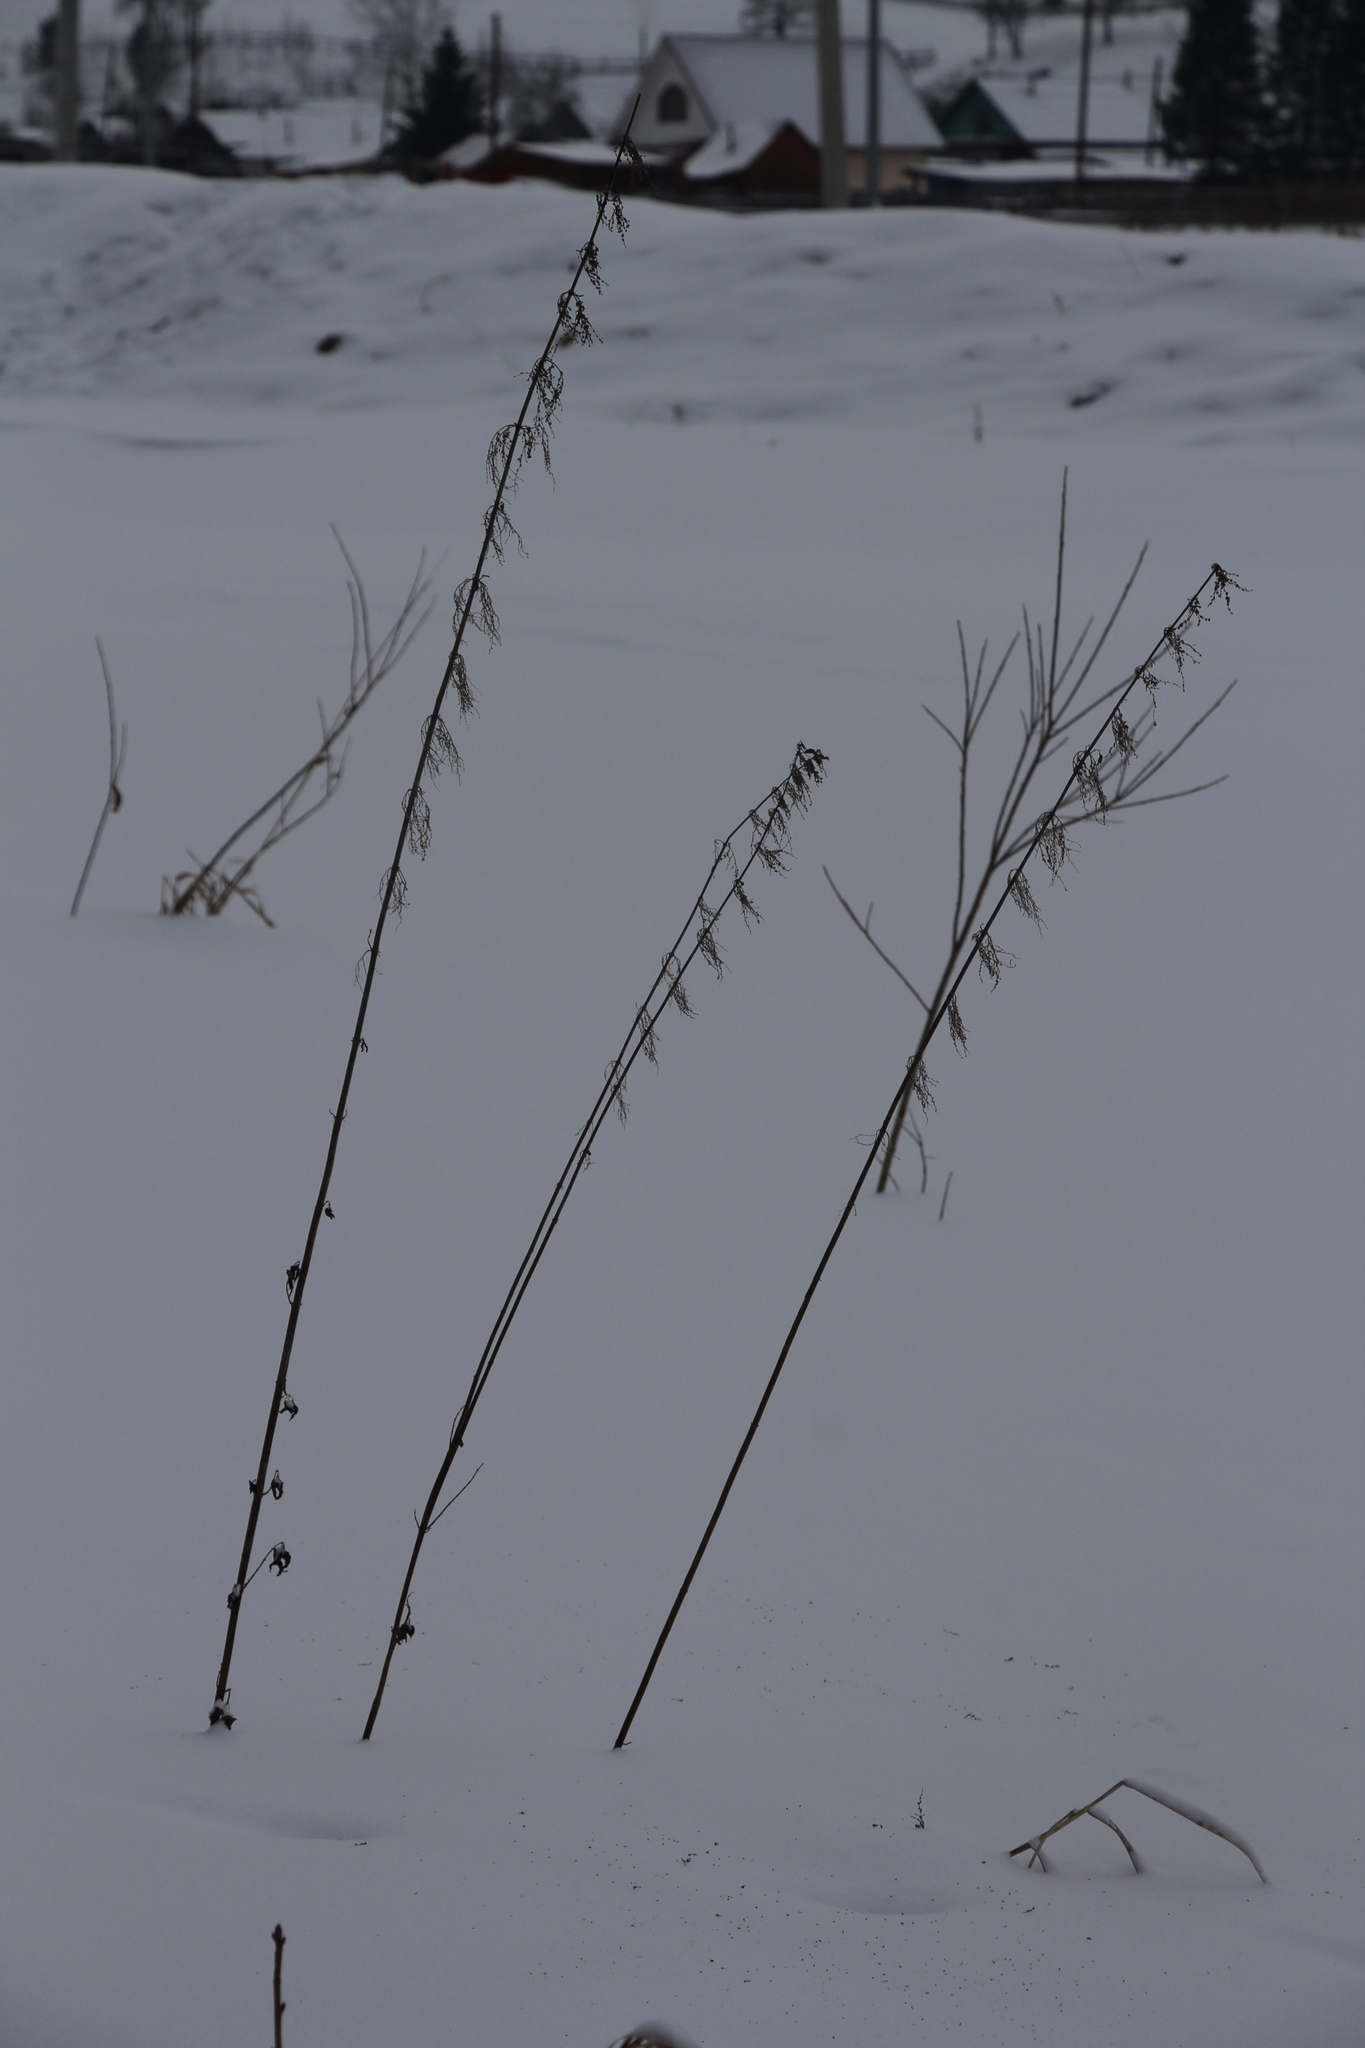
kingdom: Plantae
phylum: Tracheophyta
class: Magnoliopsida
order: Rosales
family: Urticaceae
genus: Urtica
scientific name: Urtica dioica
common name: Common nettle
